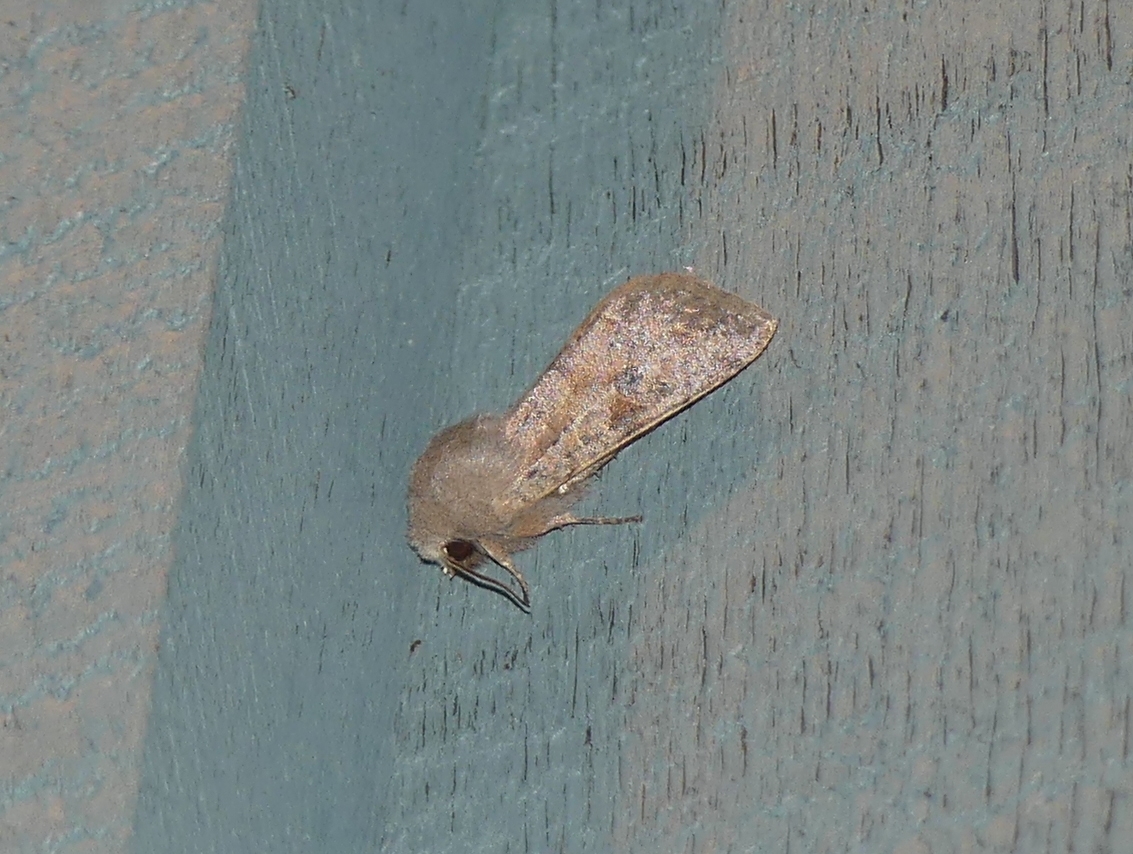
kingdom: Animalia
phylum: Arthropoda
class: Insecta
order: Lepidoptera
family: Noctuidae
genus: Orthosia
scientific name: Orthosia hibisci
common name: Green fruitworm
